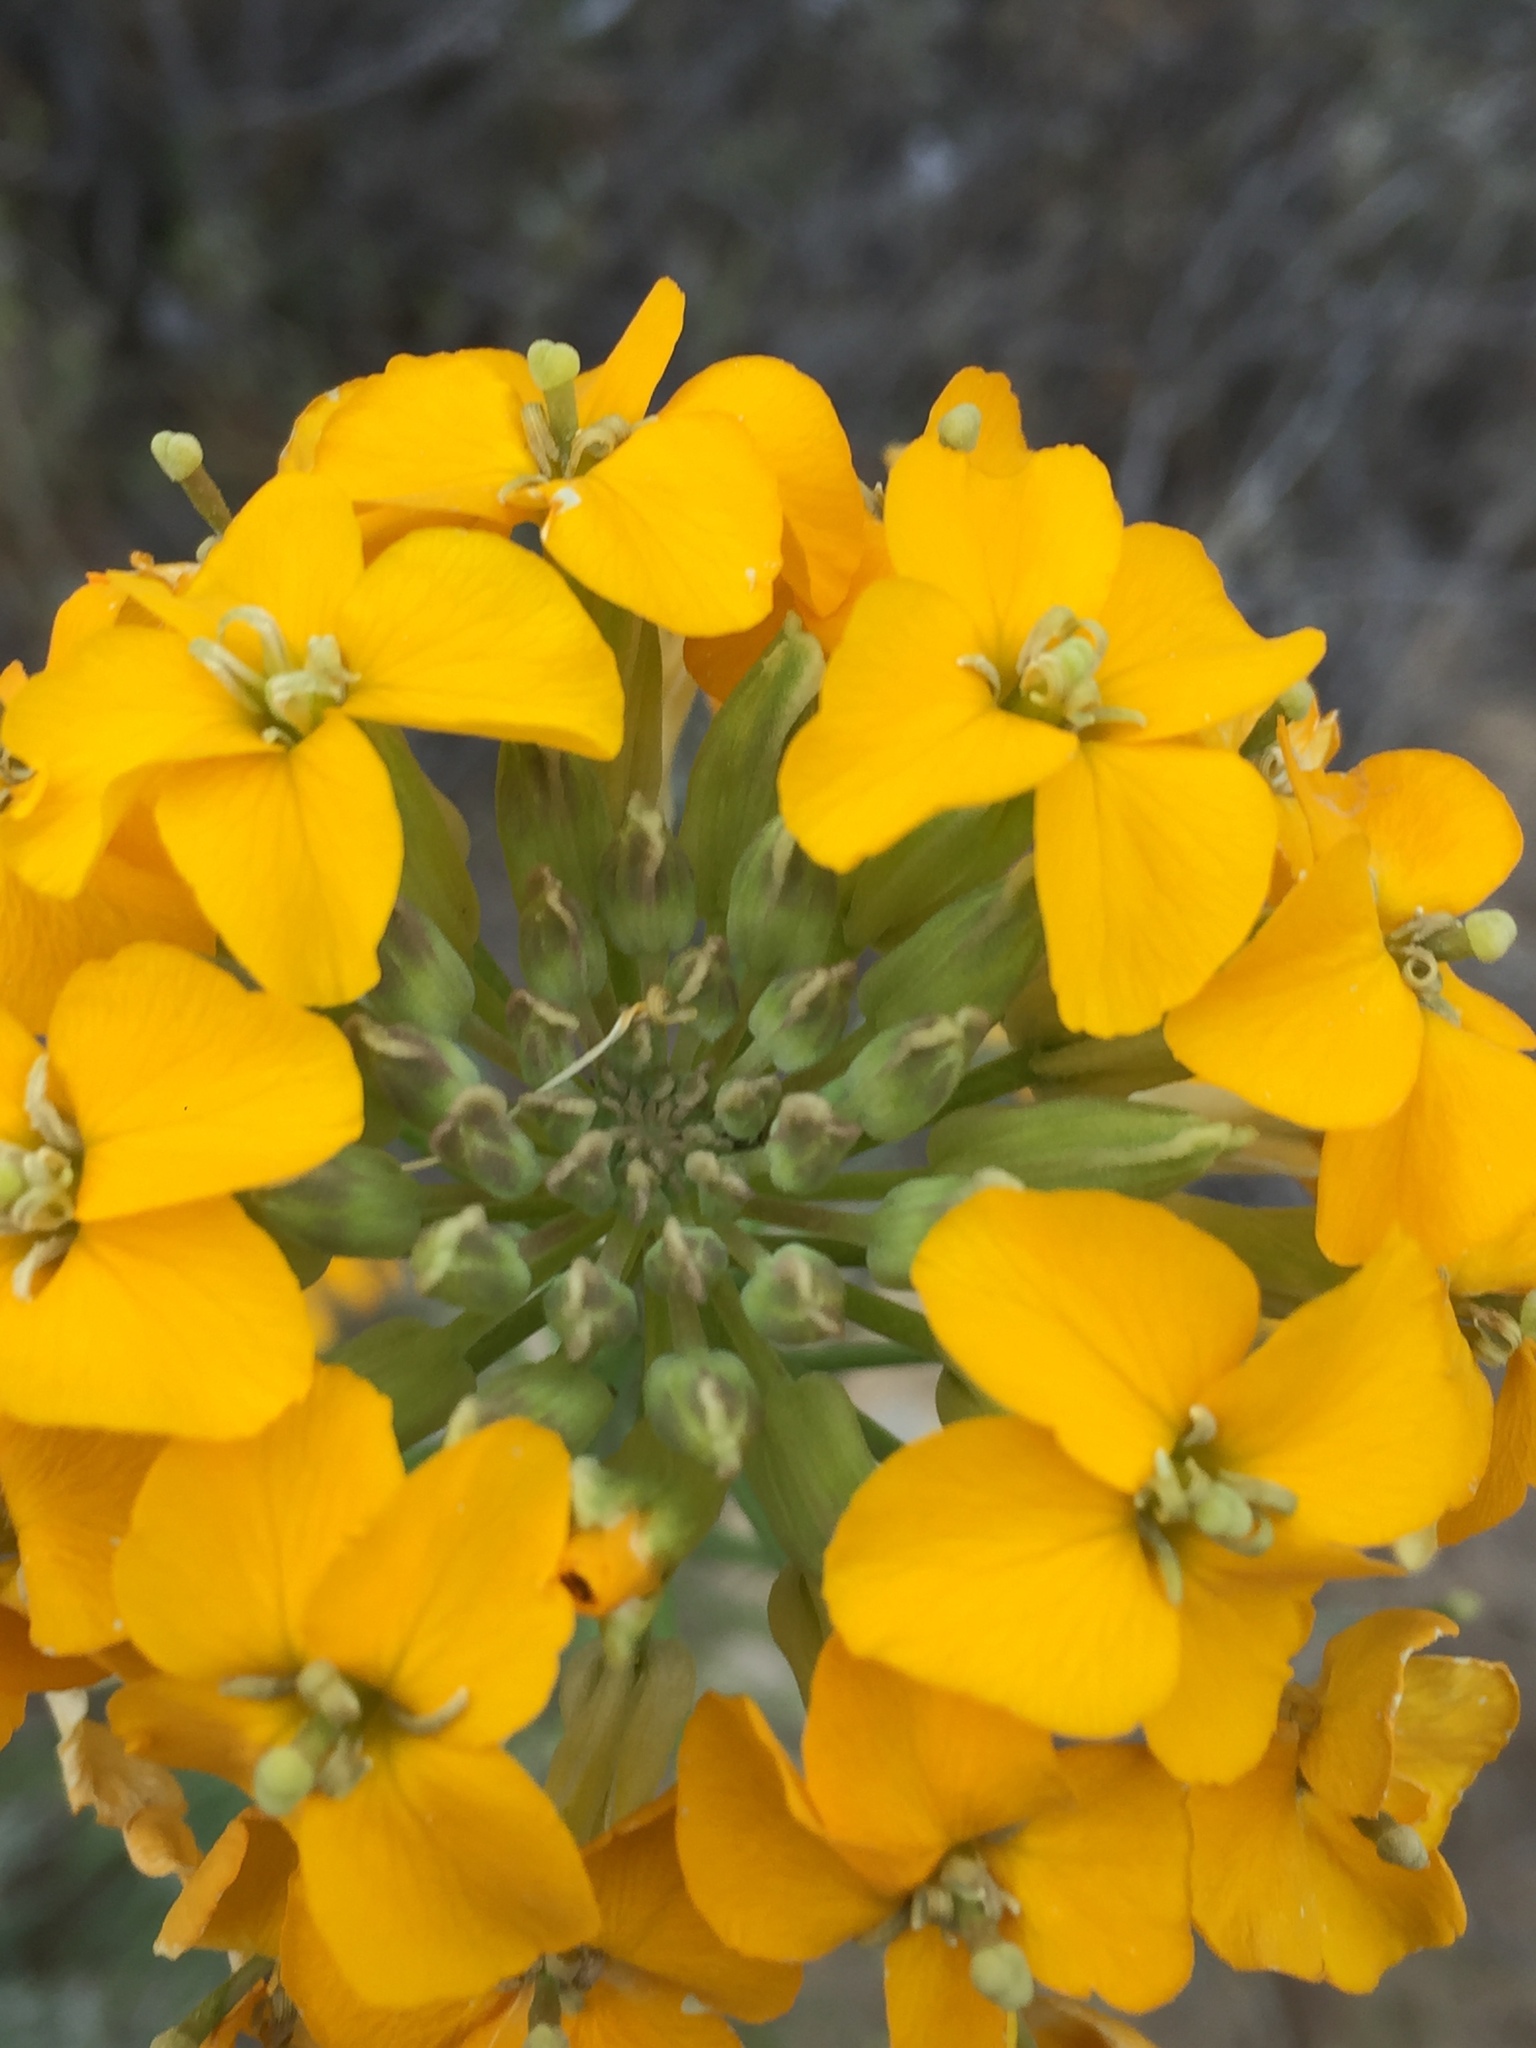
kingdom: Plantae
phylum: Tracheophyta
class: Magnoliopsida
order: Brassicales
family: Brassicaceae
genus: Erysimum
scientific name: Erysimum capitatum
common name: Western wallflower
